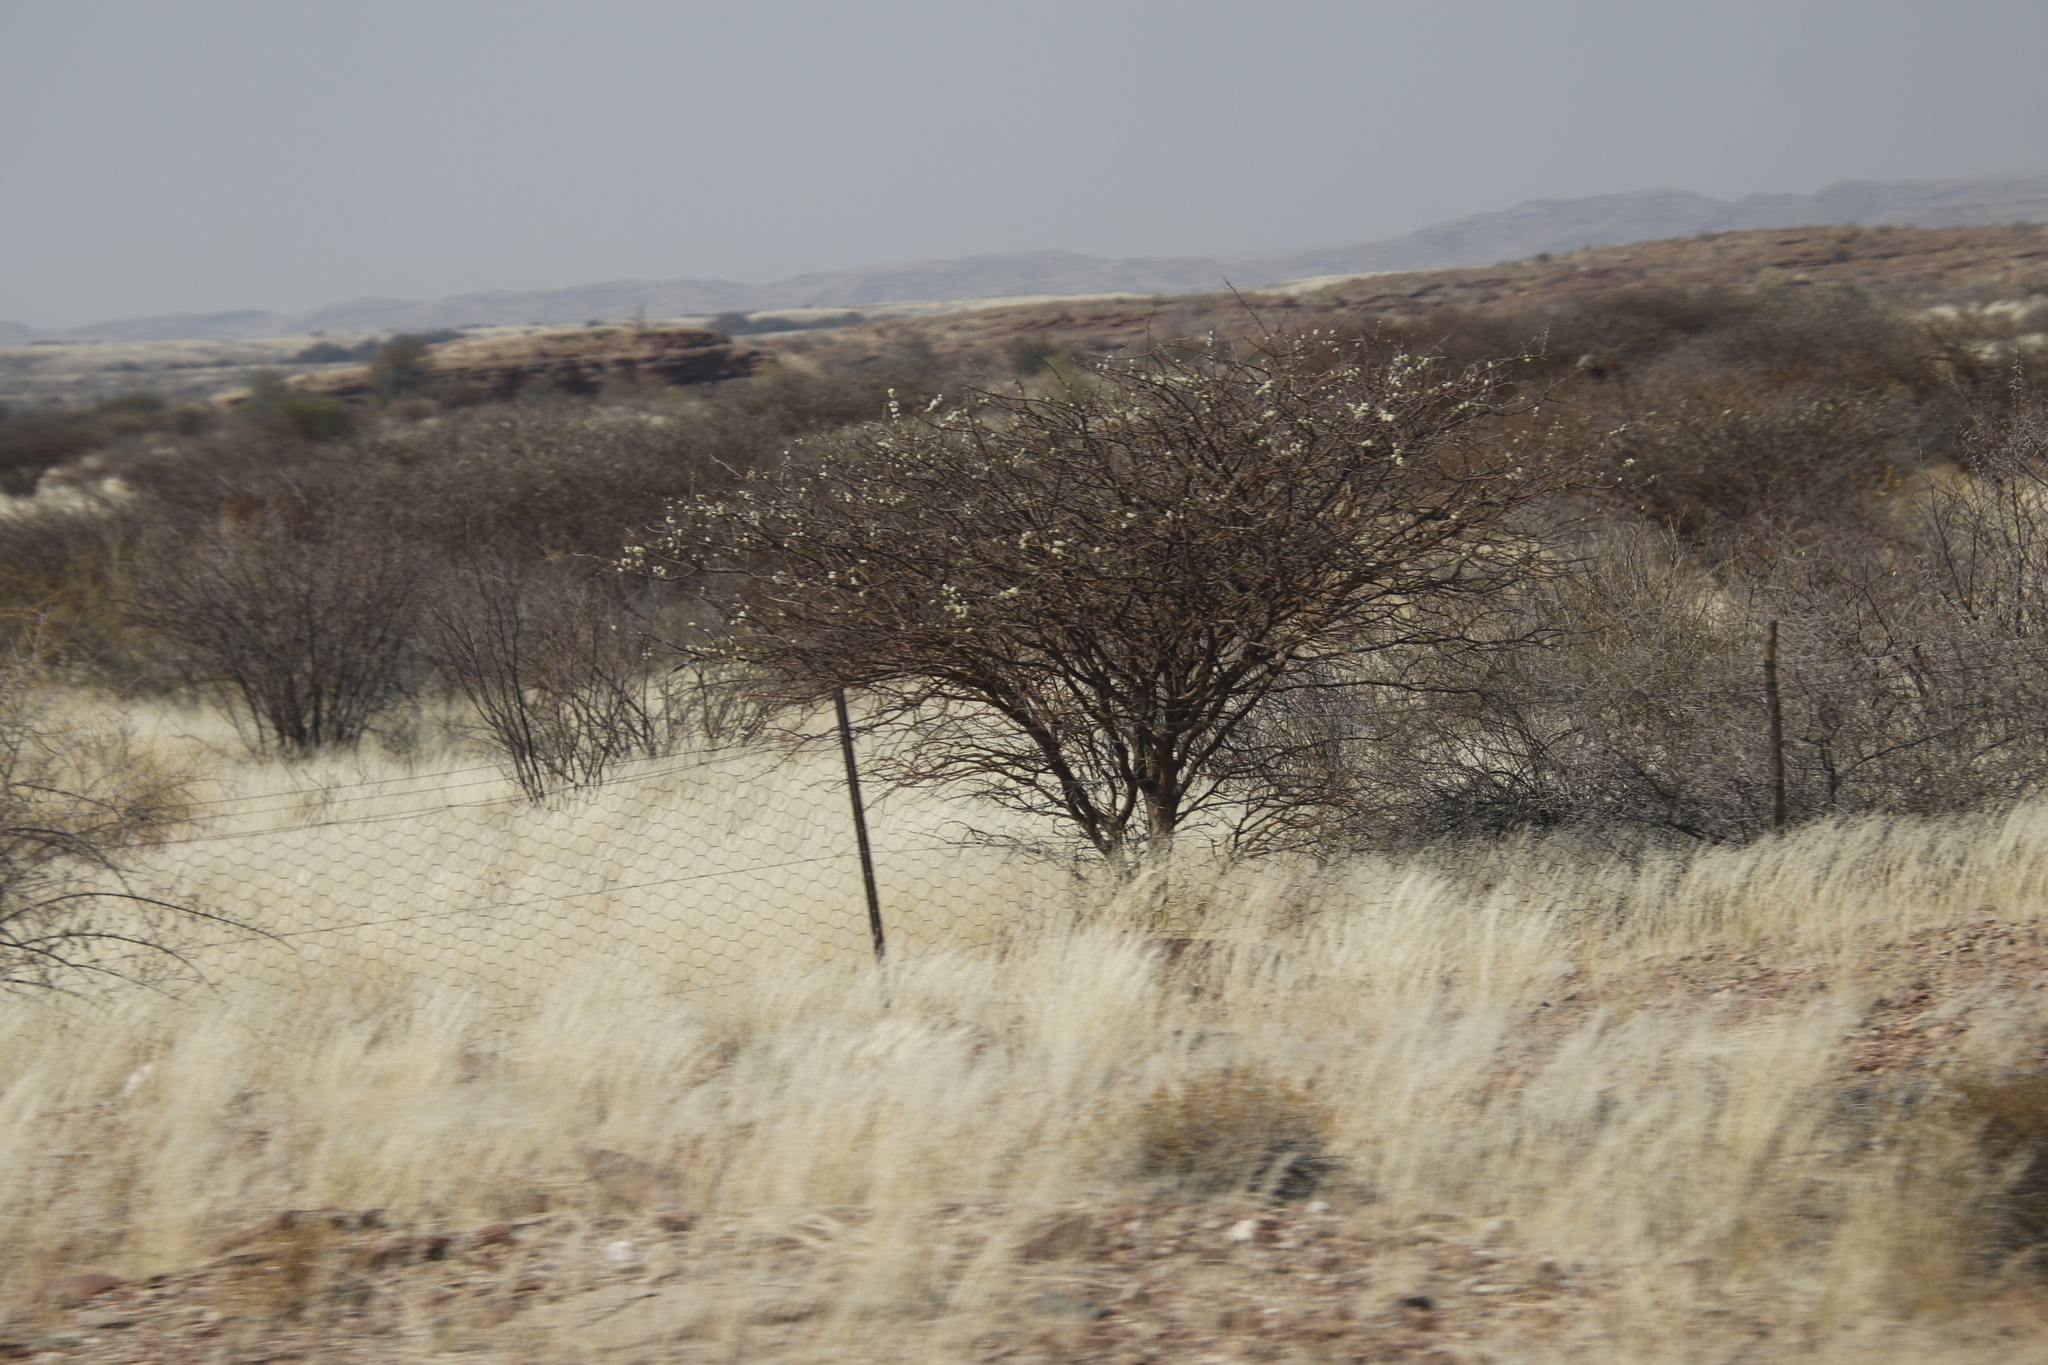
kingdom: Plantae
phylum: Tracheophyta
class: Magnoliopsida
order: Fabales
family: Fabaceae
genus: Senegalia
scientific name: Senegalia mellifera
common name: Hookthorn
